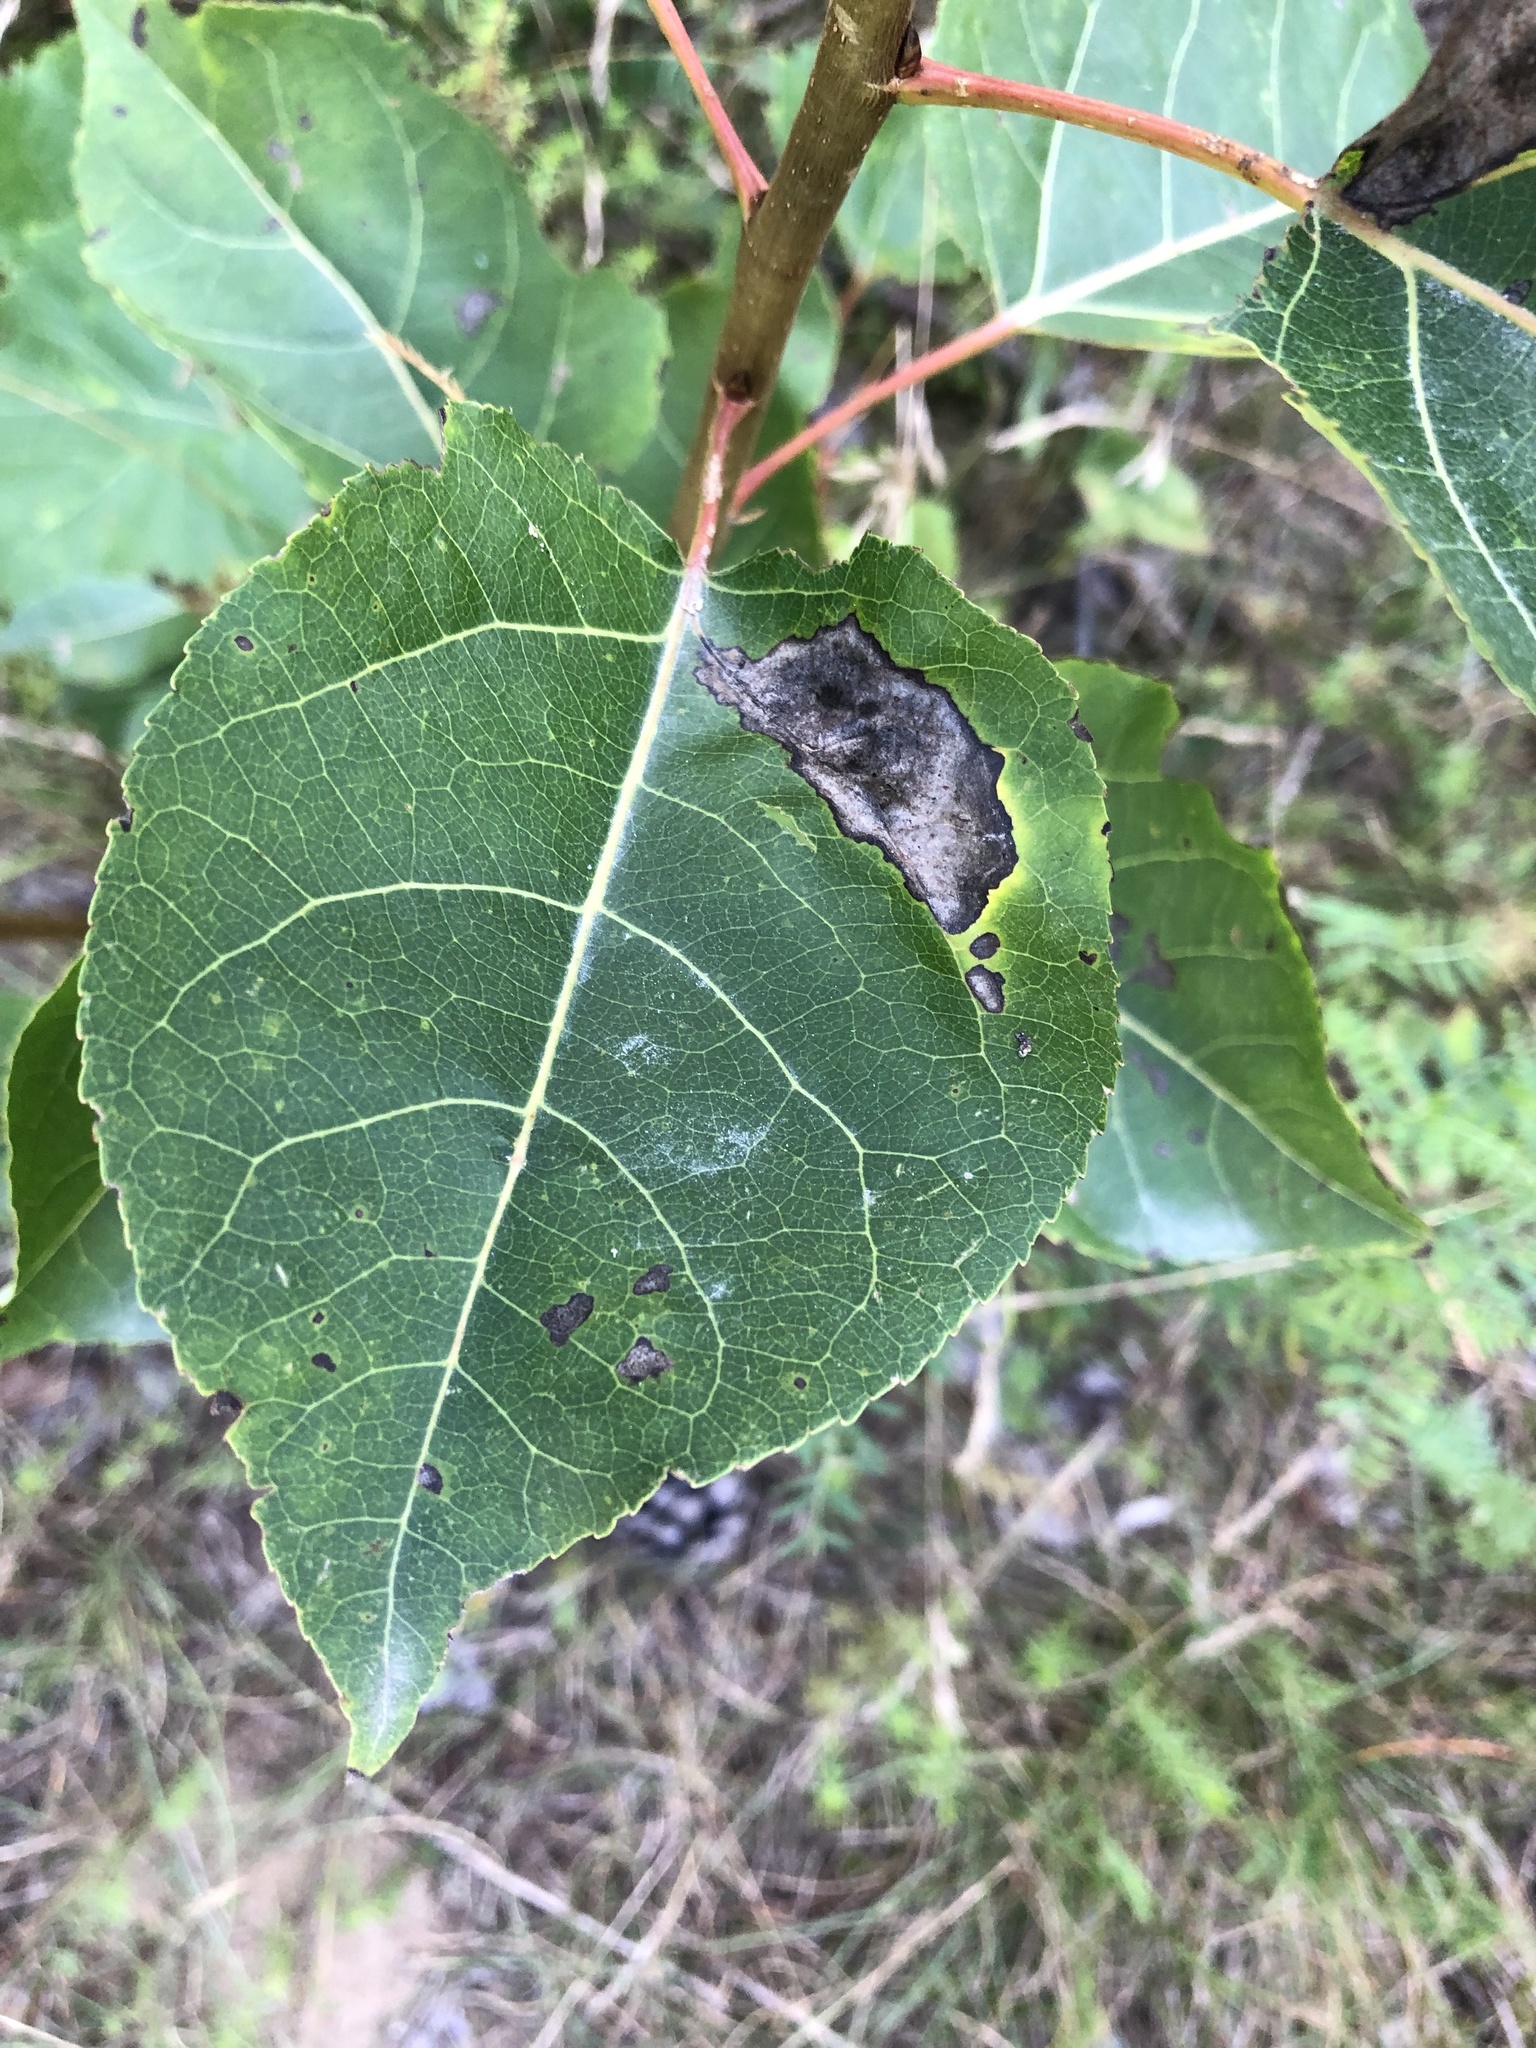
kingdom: Plantae
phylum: Tracheophyta
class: Magnoliopsida
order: Malpighiales
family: Salicaceae
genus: Populus
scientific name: Populus balsamifera
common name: Balsam poplar
